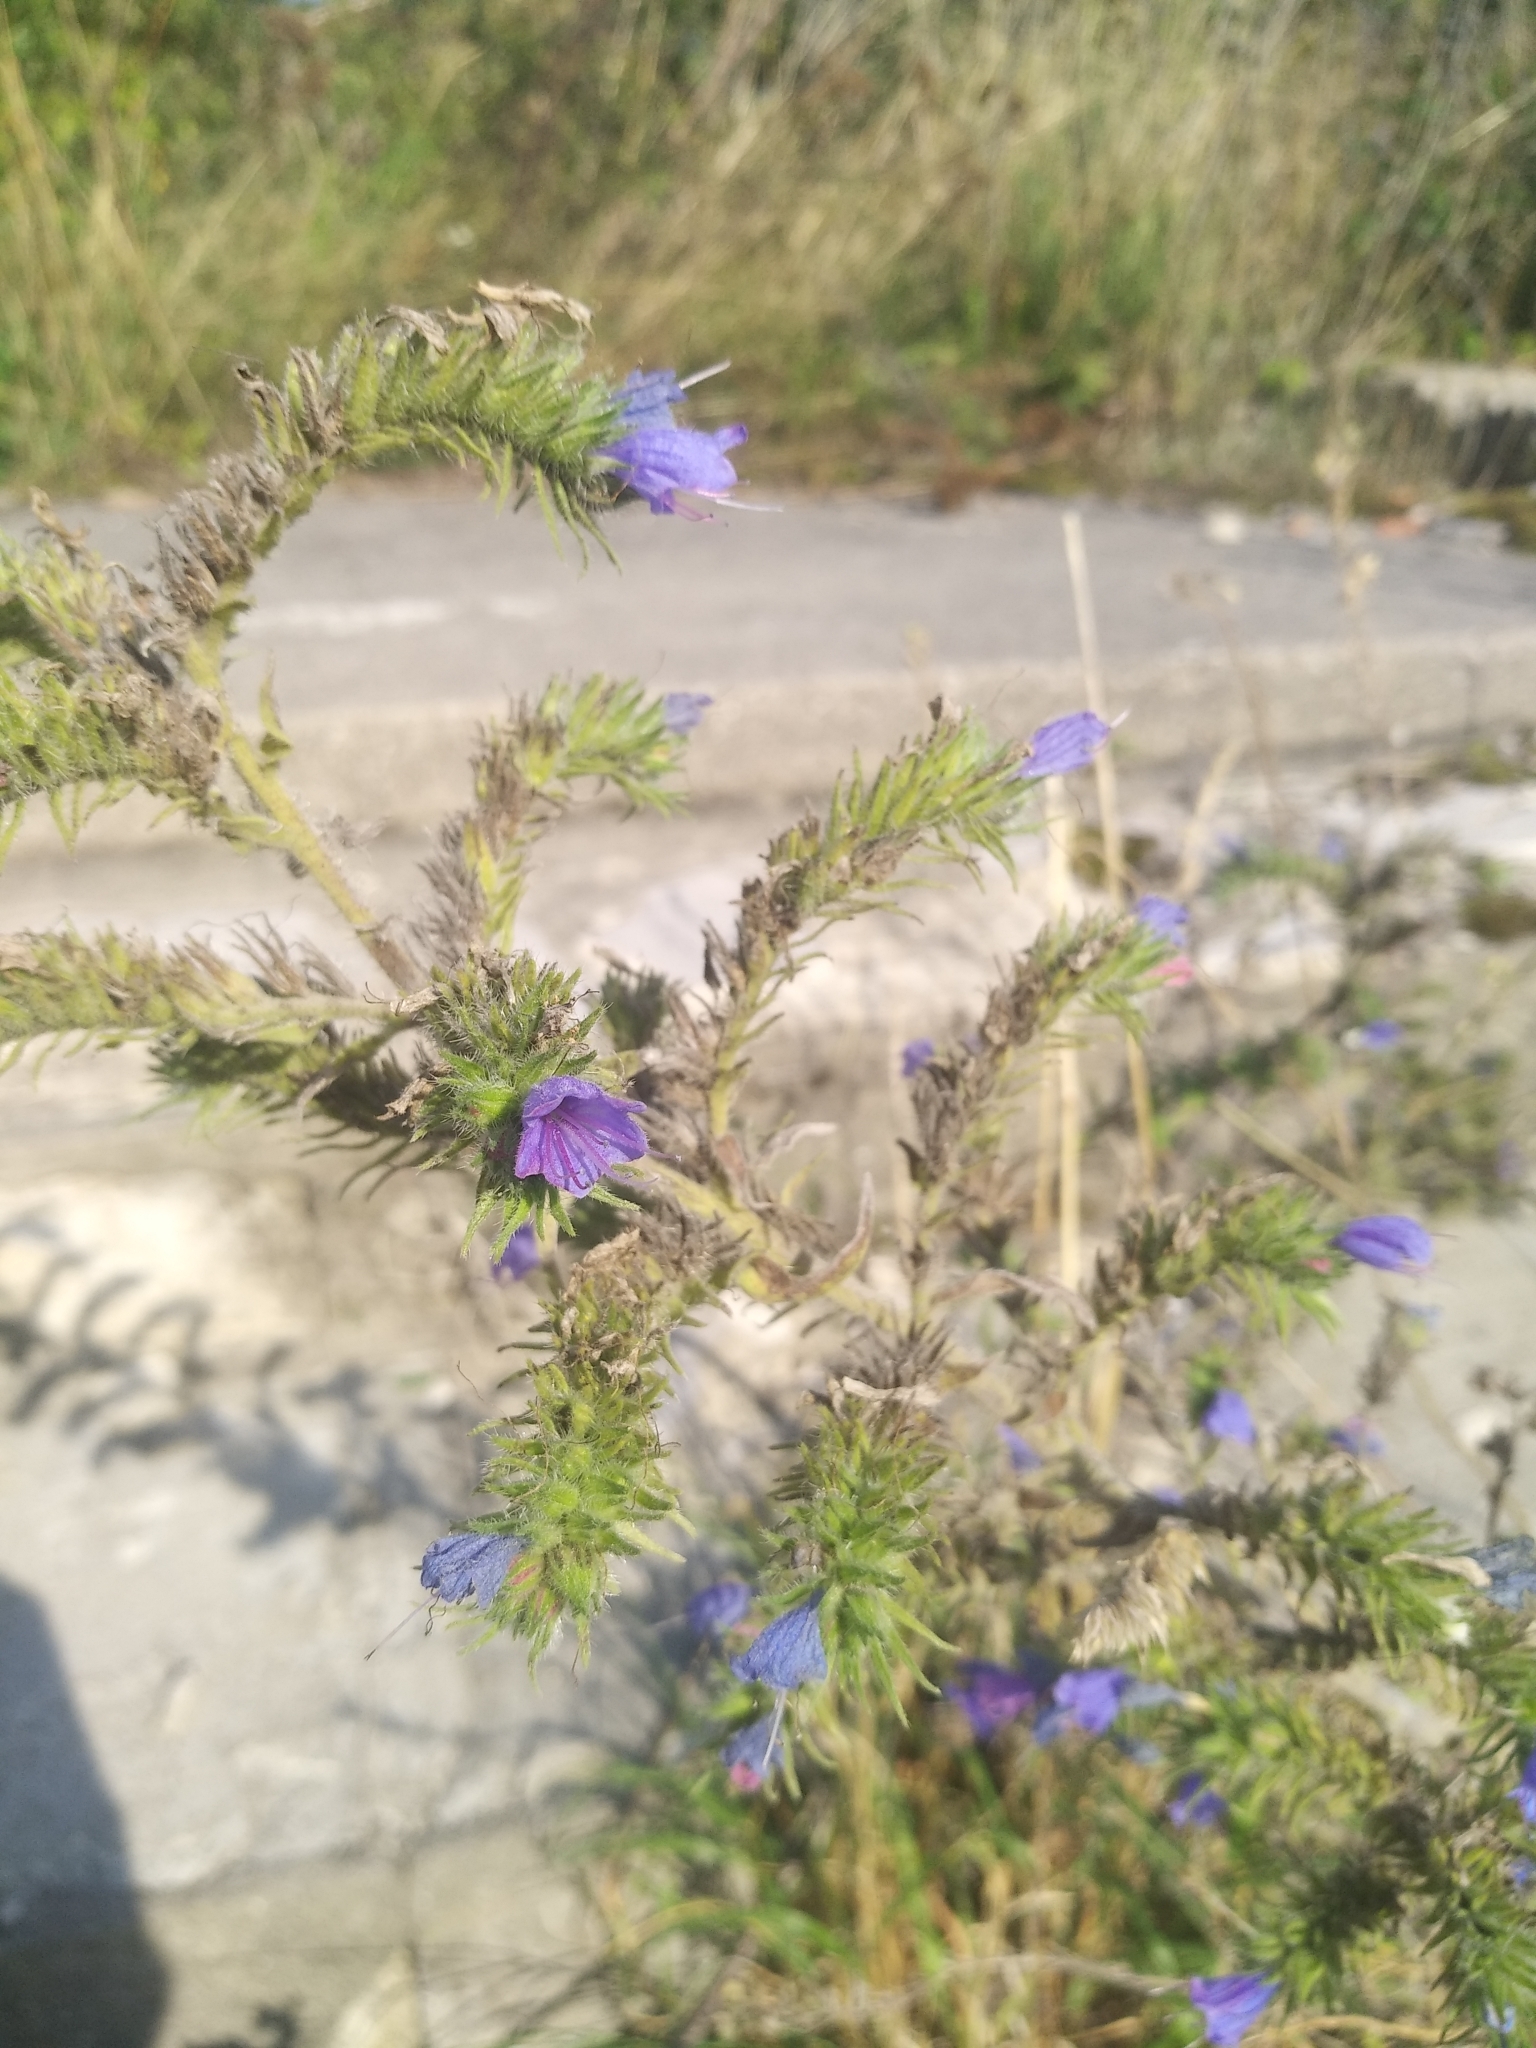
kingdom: Plantae
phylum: Tracheophyta
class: Magnoliopsida
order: Boraginales
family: Boraginaceae
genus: Echium
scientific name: Echium vulgare
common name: Common viper's bugloss
